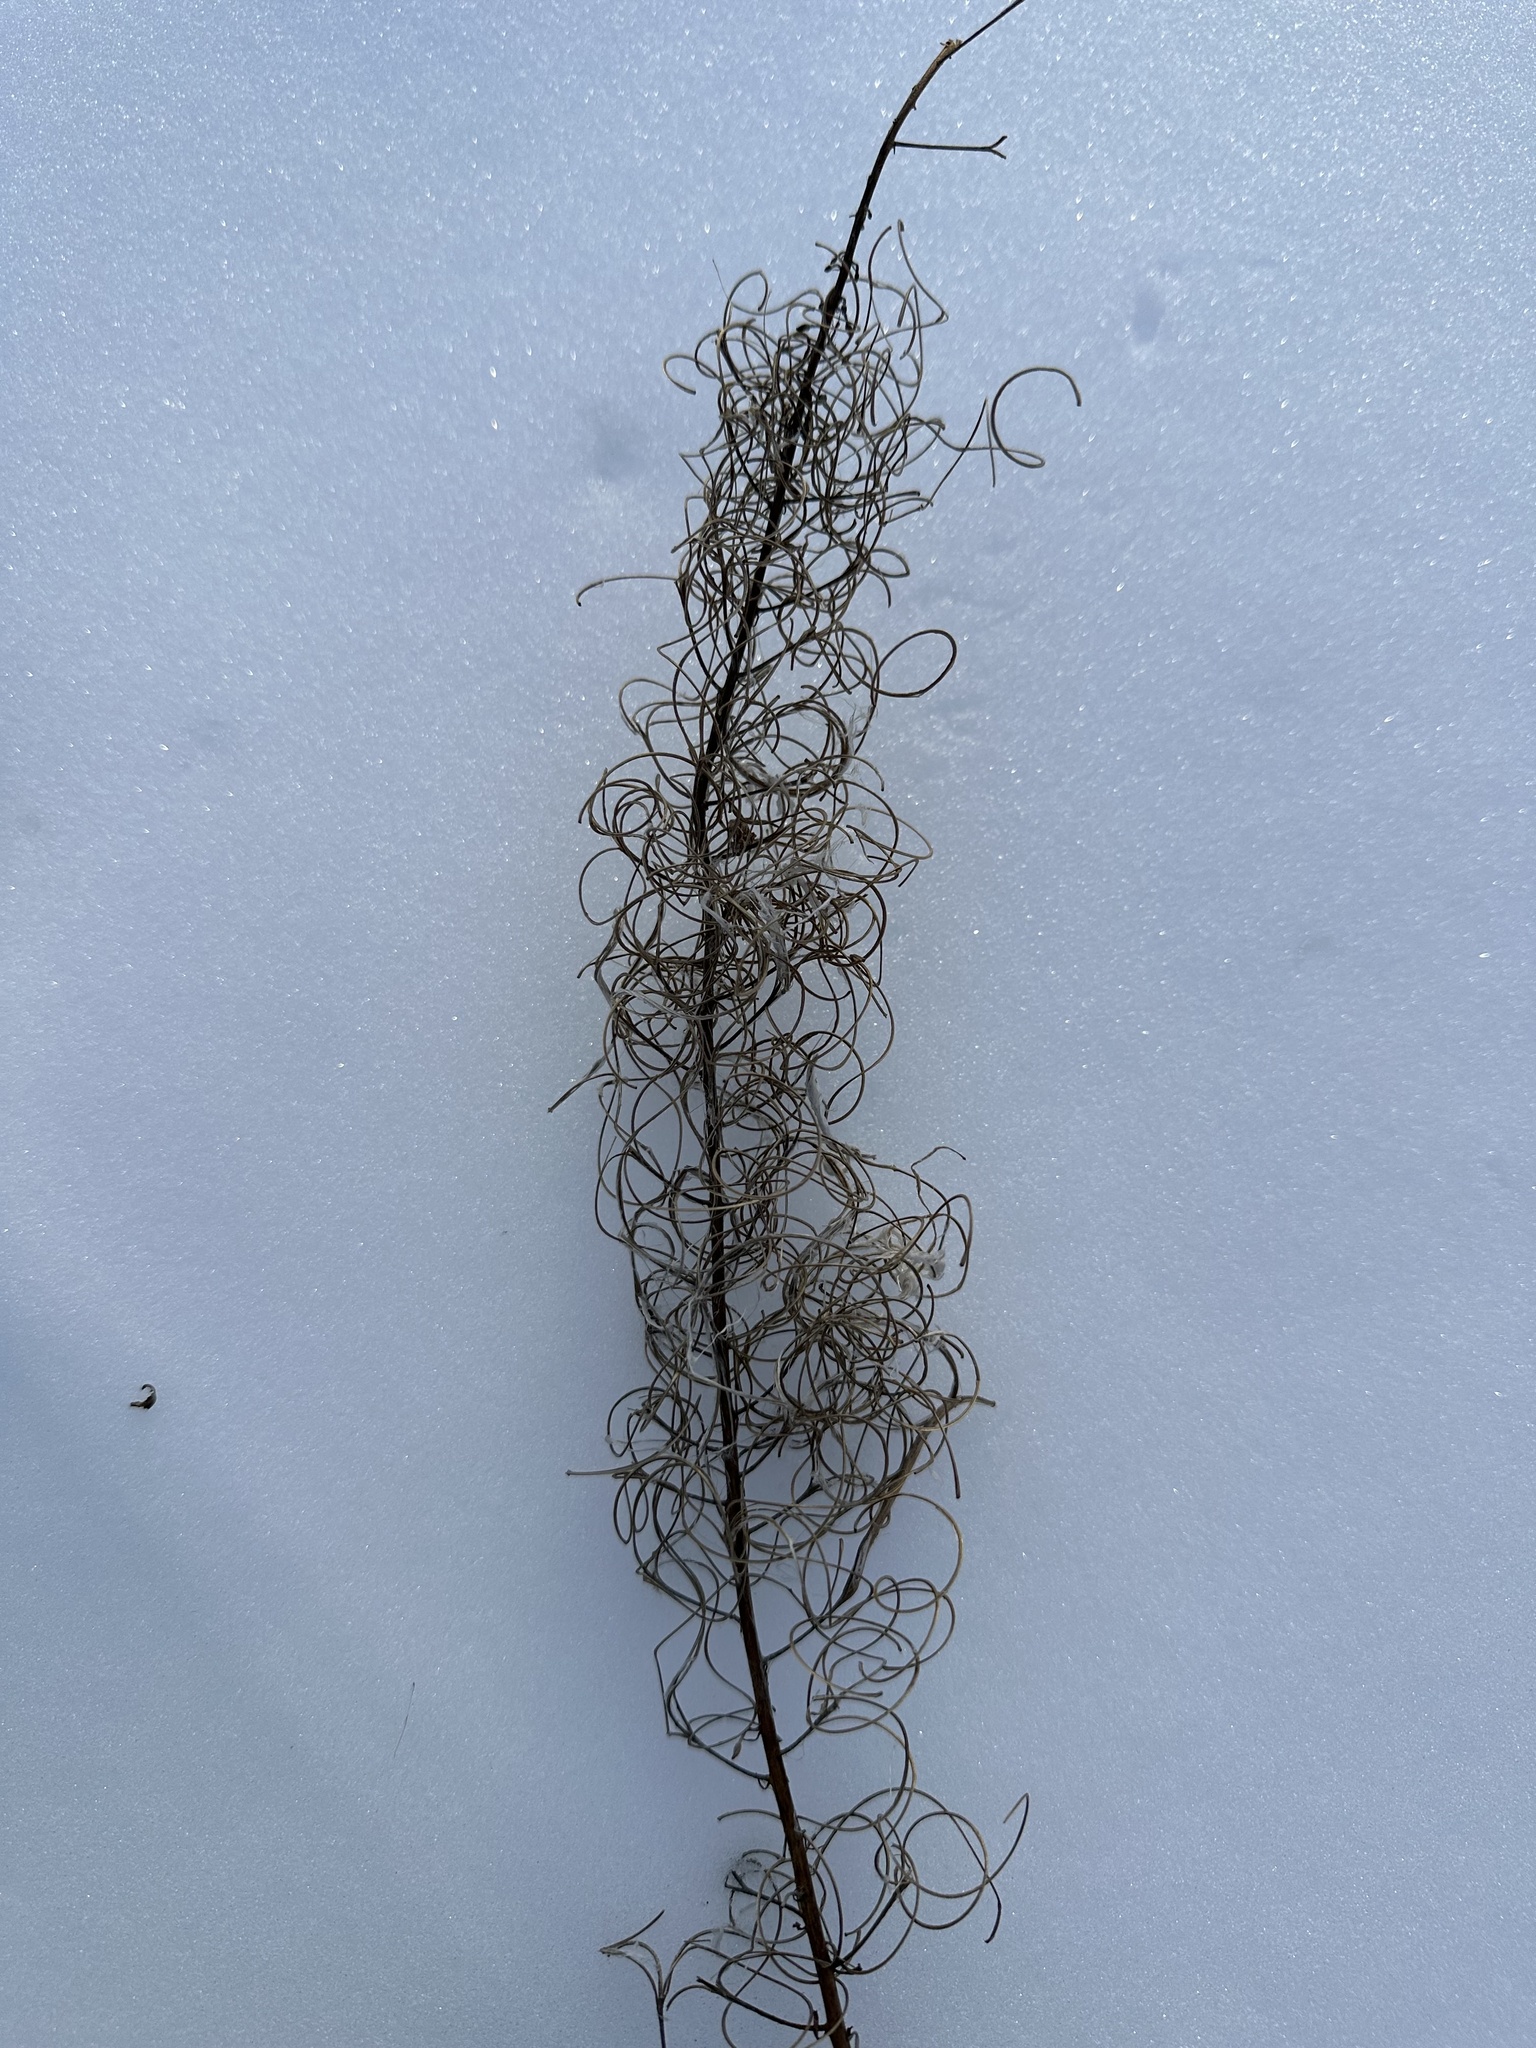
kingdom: Plantae
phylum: Tracheophyta
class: Magnoliopsida
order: Myrtales
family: Onagraceae
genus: Chamaenerion
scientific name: Chamaenerion angustifolium
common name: Fireweed
